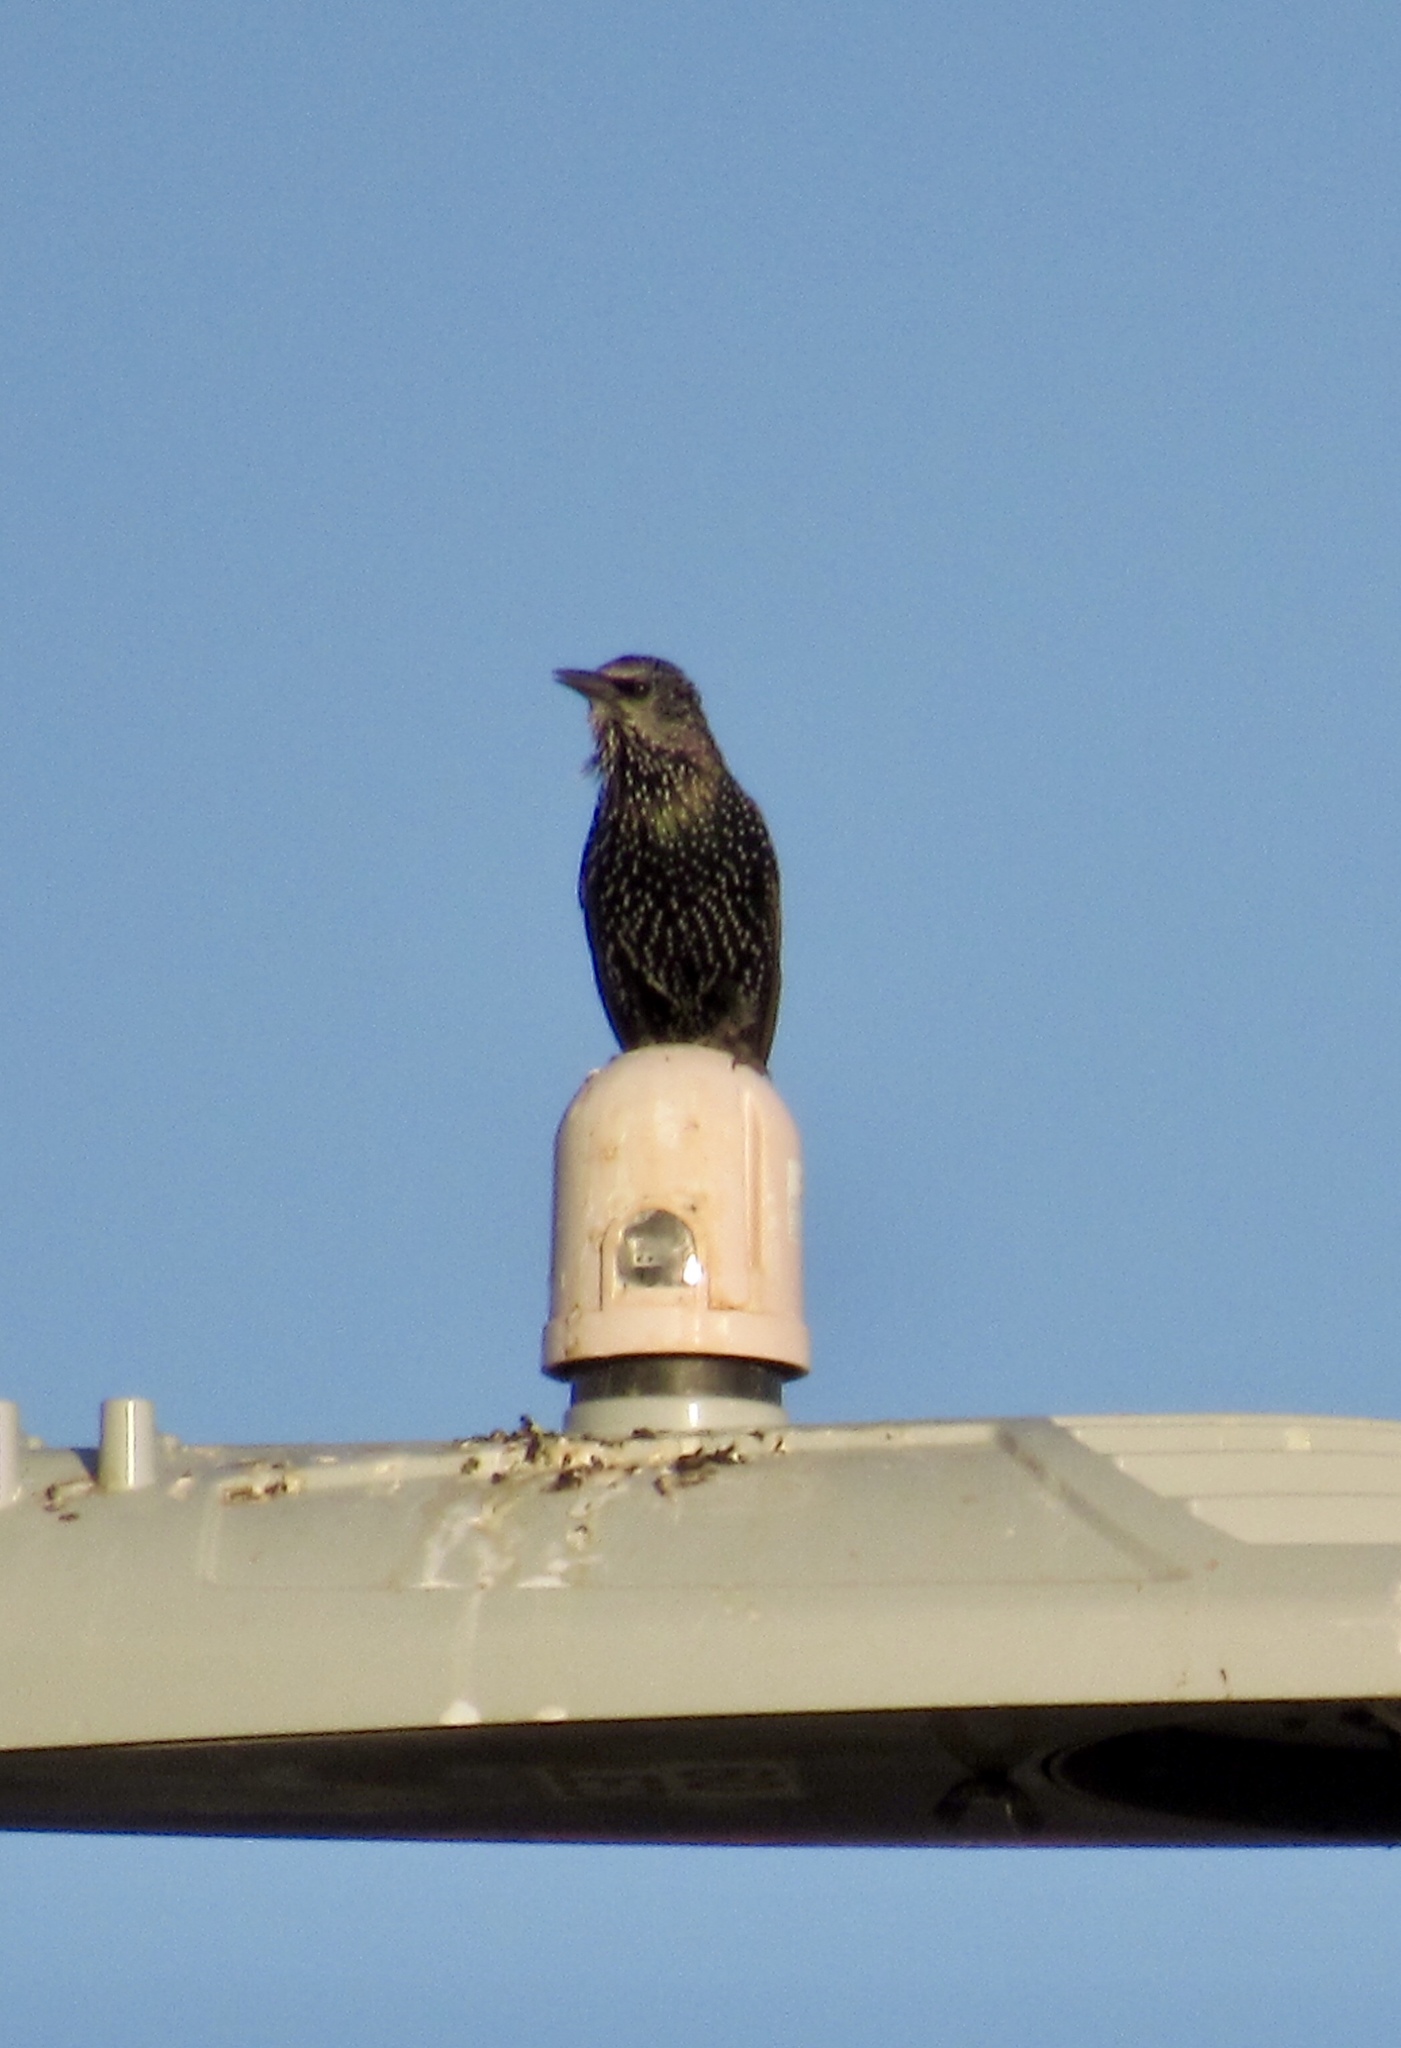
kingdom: Animalia
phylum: Chordata
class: Aves
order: Passeriformes
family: Sturnidae
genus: Sturnus
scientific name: Sturnus vulgaris
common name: Common starling
